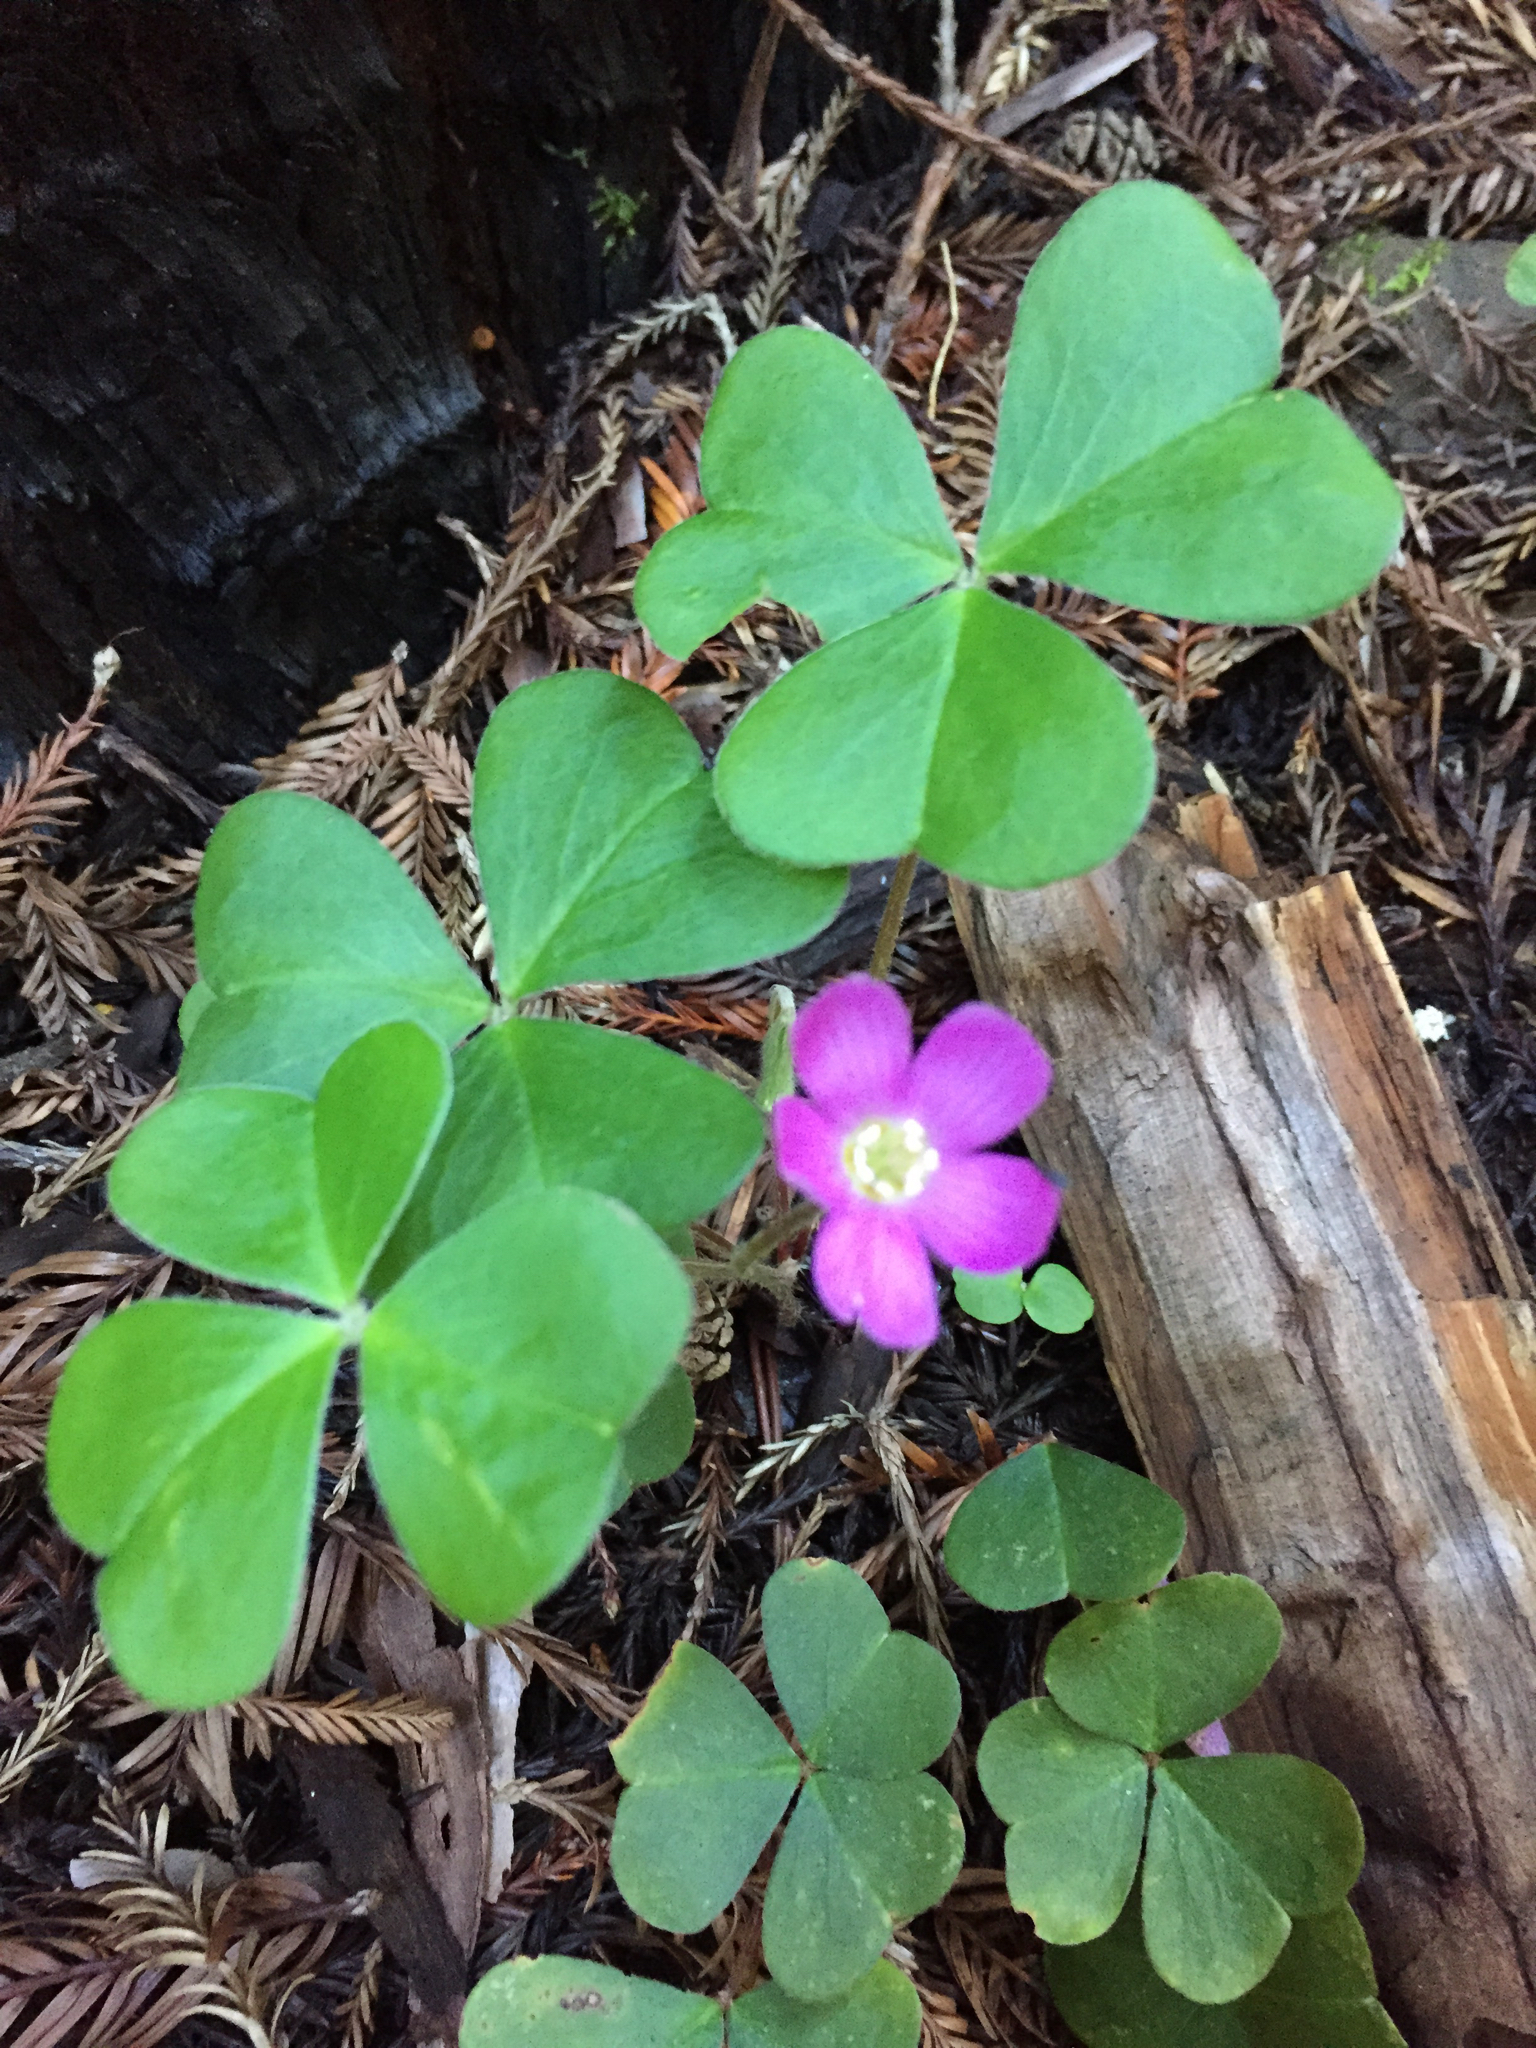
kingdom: Plantae
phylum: Tracheophyta
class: Magnoliopsida
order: Oxalidales
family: Oxalidaceae
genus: Oxalis
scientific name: Oxalis oregana
